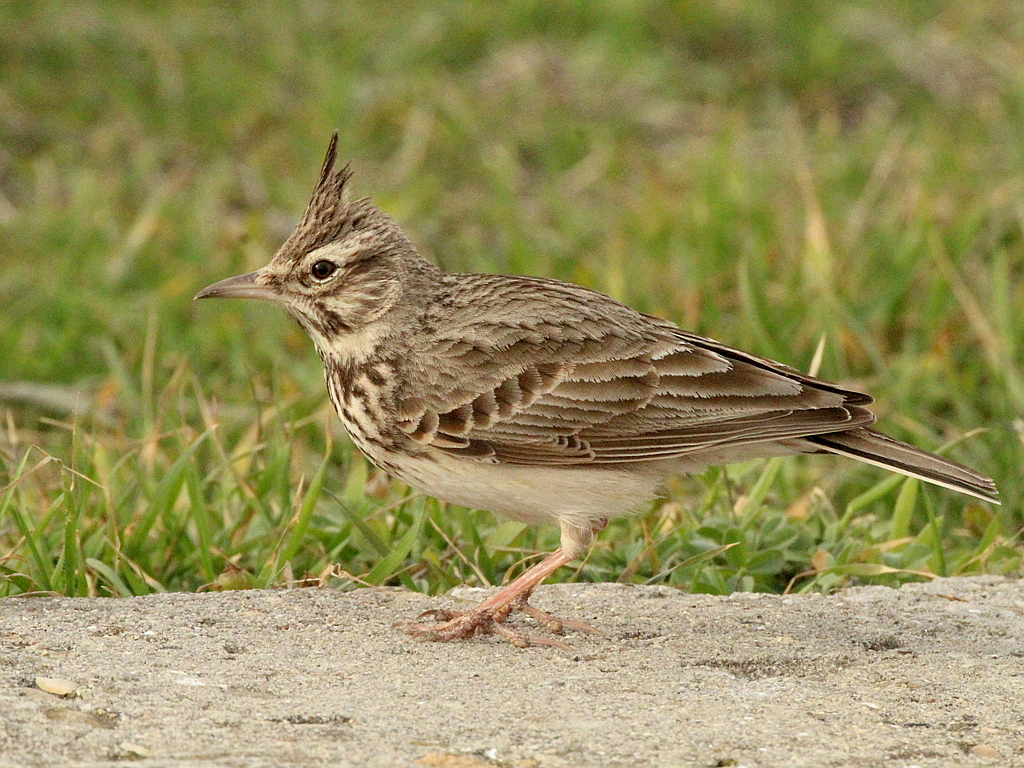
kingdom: Animalia
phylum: Chordata
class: Aves
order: Passeriformes
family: Alaudidae
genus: Galerida
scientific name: Galerida cristata
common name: Crested lark
